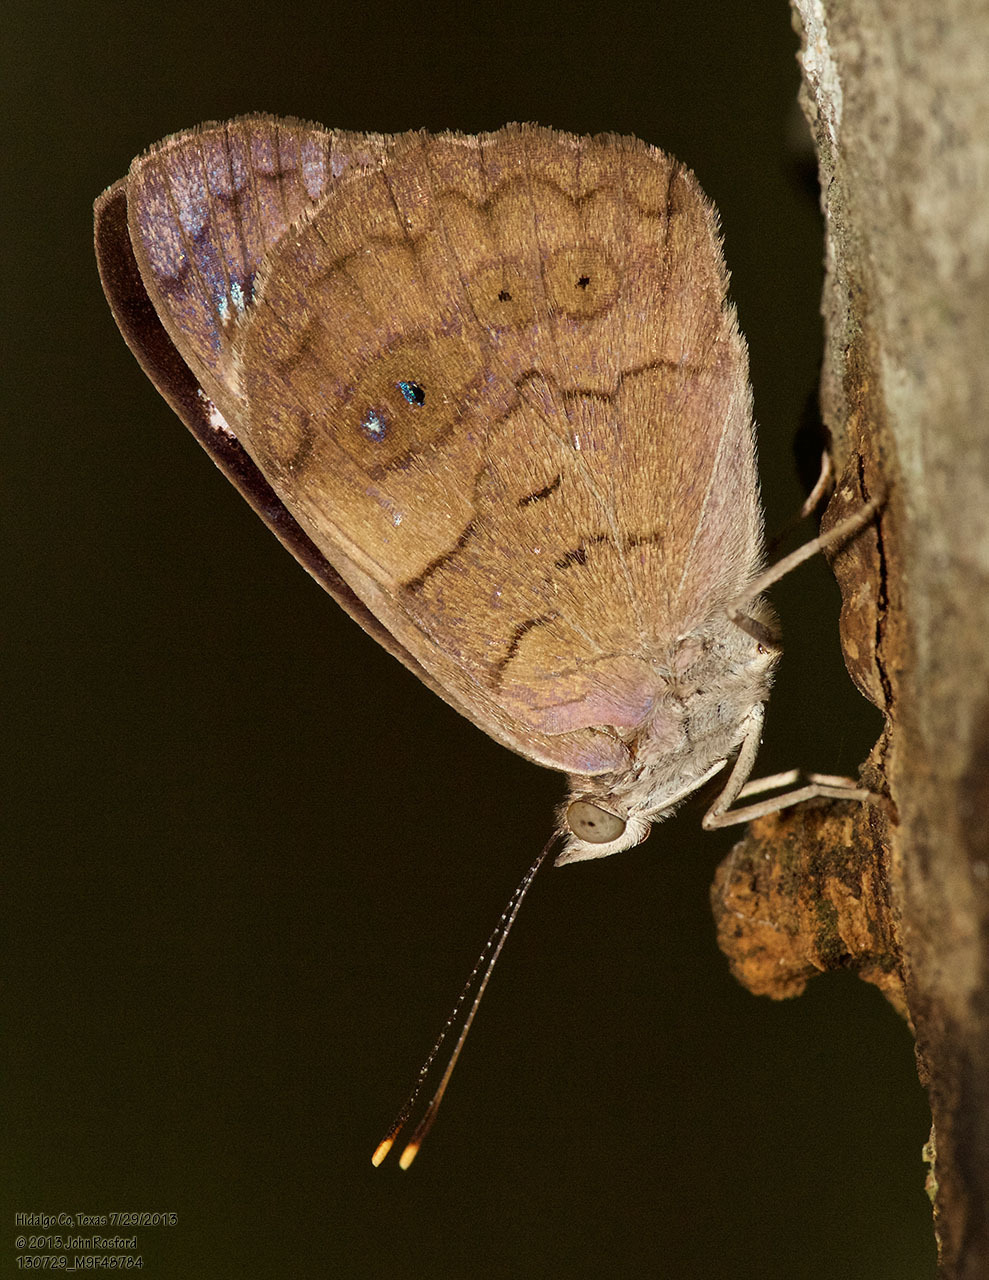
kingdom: Animalia
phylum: Arthropoda
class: Insecta
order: Lepidoptera
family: Nymphalidae
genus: Eunica
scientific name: Eunica monima
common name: Dingy purplewing
